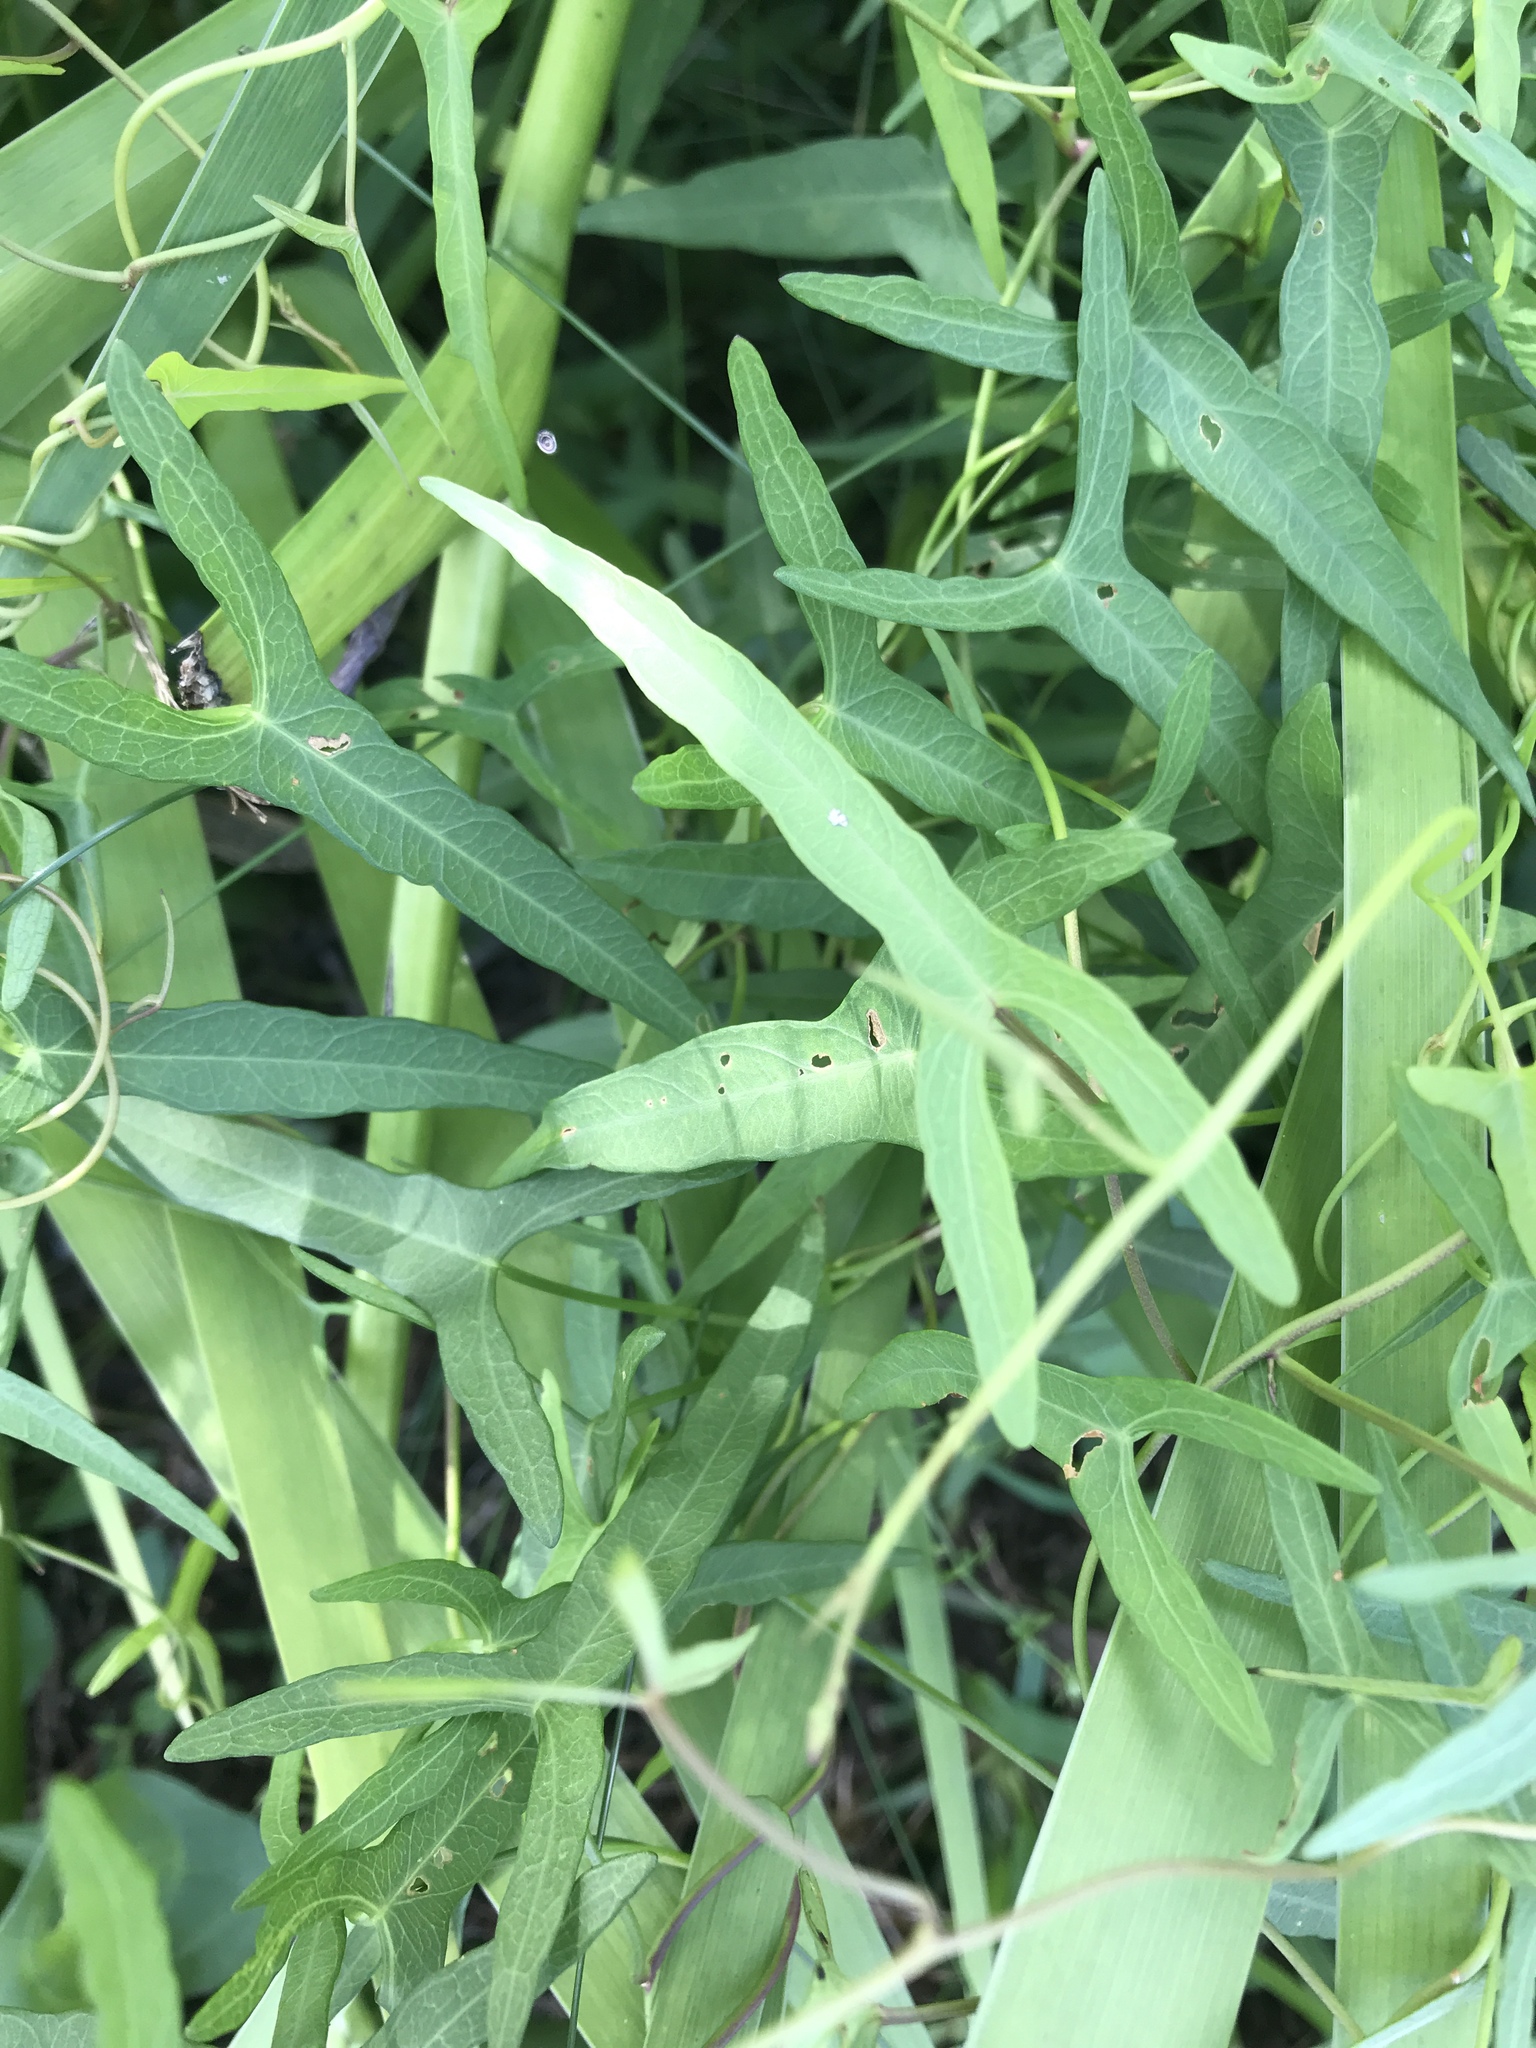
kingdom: Plantae
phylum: Tracheophyta
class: Magnoliopsida
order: Solanales
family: Convolvulaceae
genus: Ipomoea
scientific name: Ipomoea sagittata
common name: Saltmarsh morning glory
